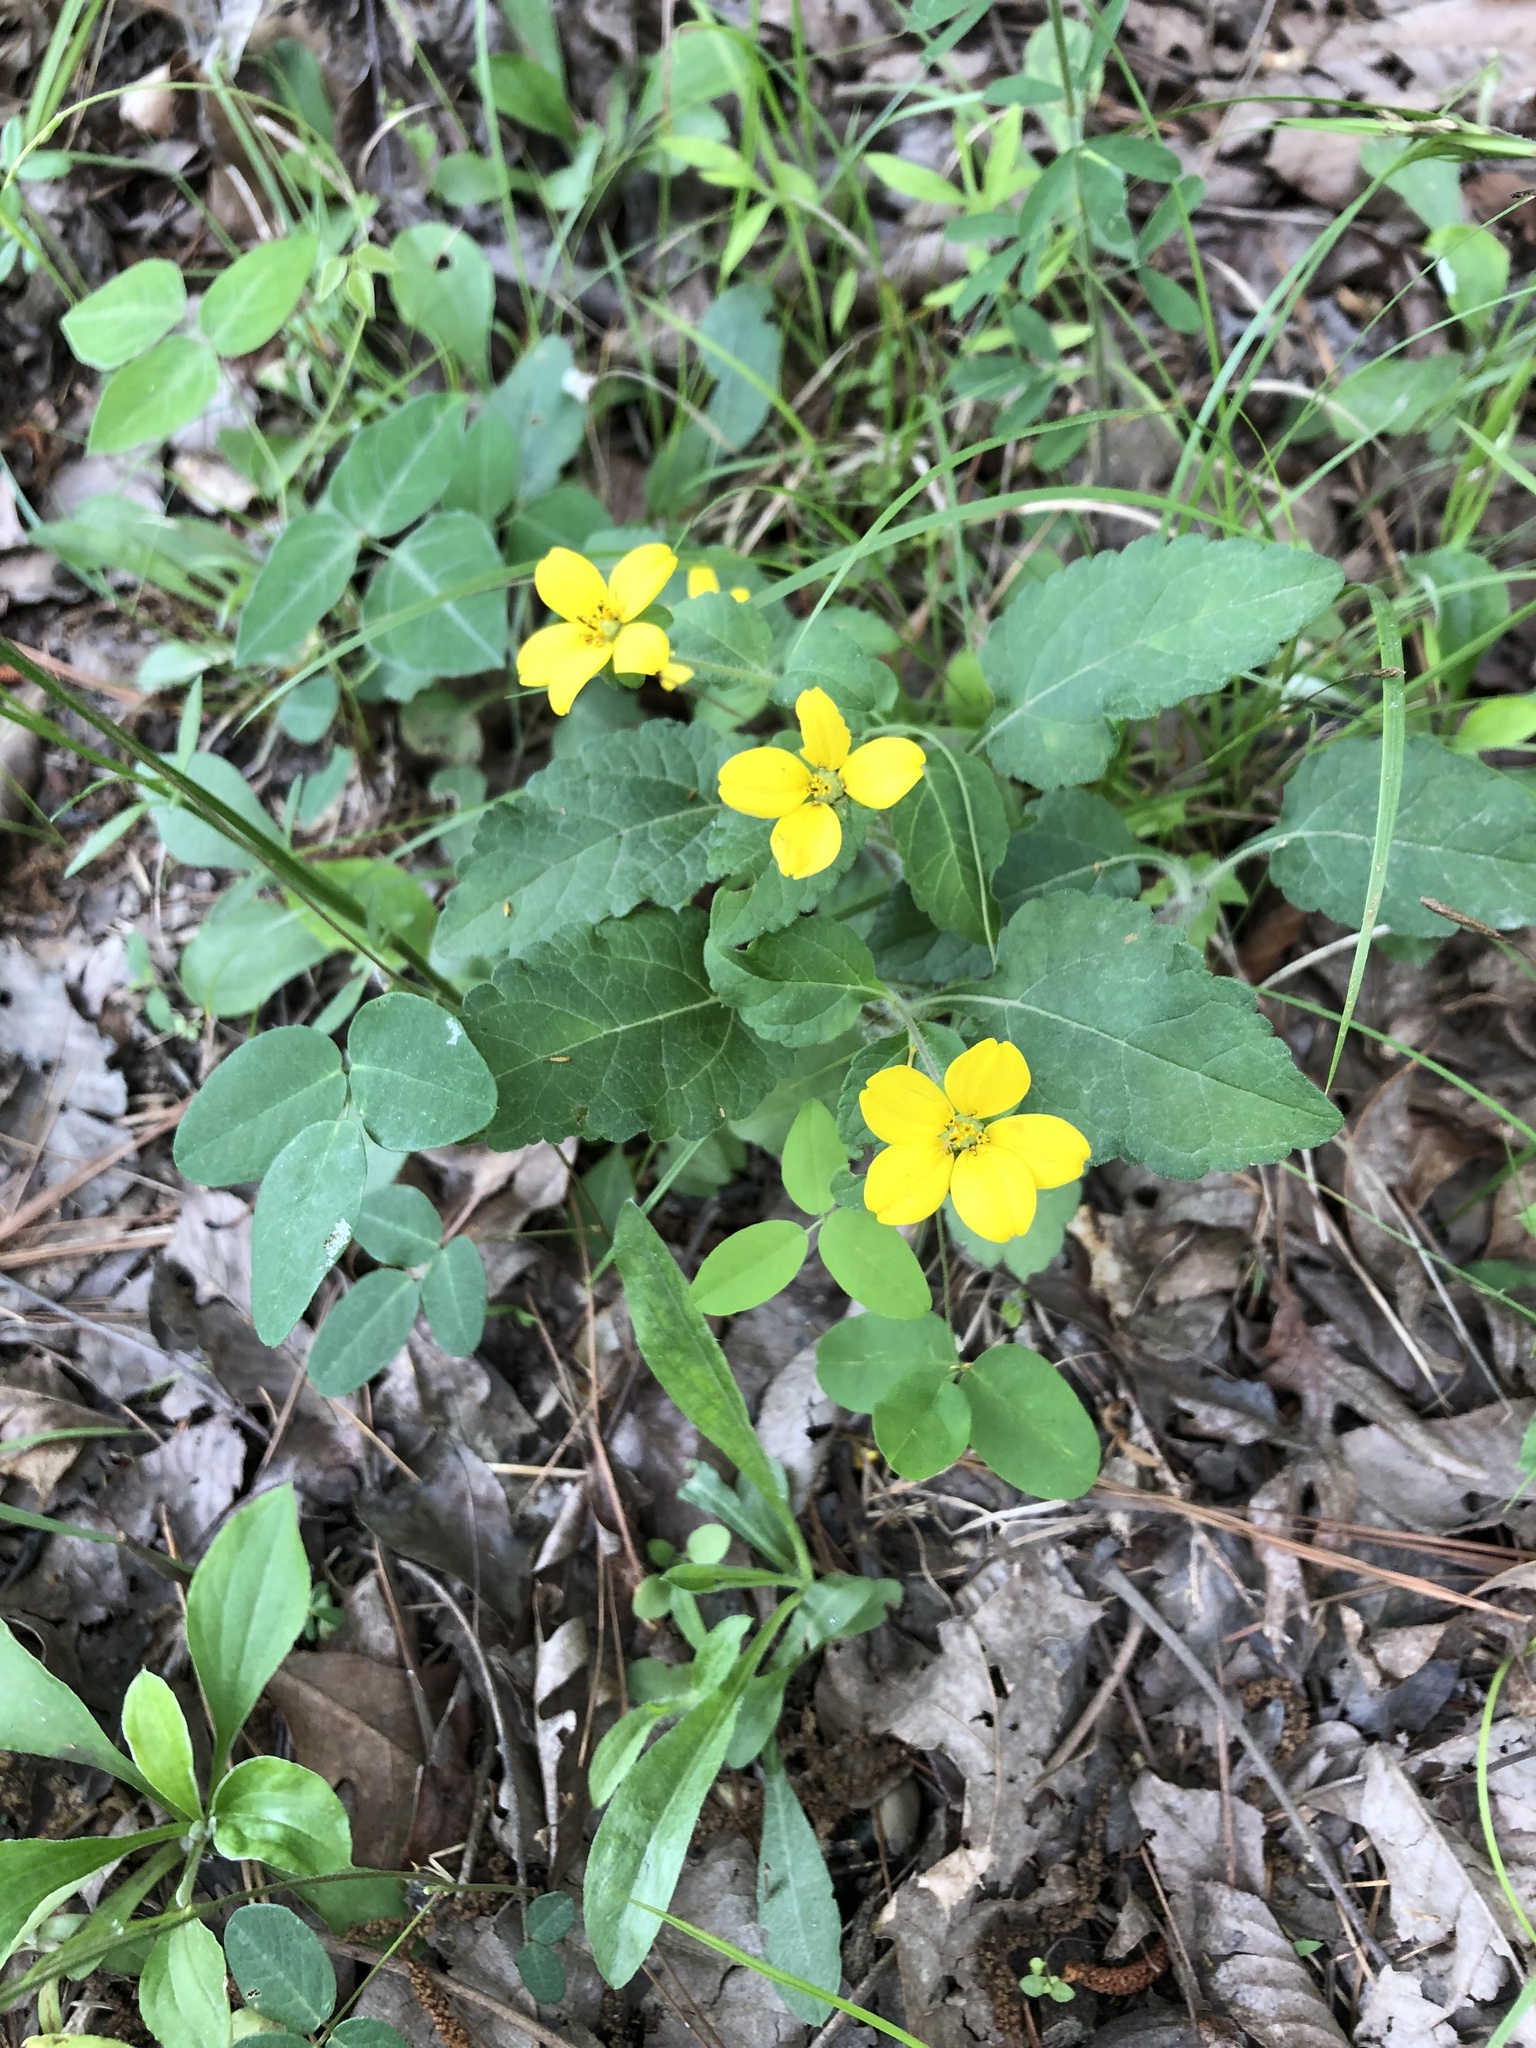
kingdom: Plantae
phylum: Tracheophyta
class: Magnoliopsida
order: Asterales
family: Asteraceae
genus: Chrysogonum
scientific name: Chrysogonum virginianum
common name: Golden-knee
